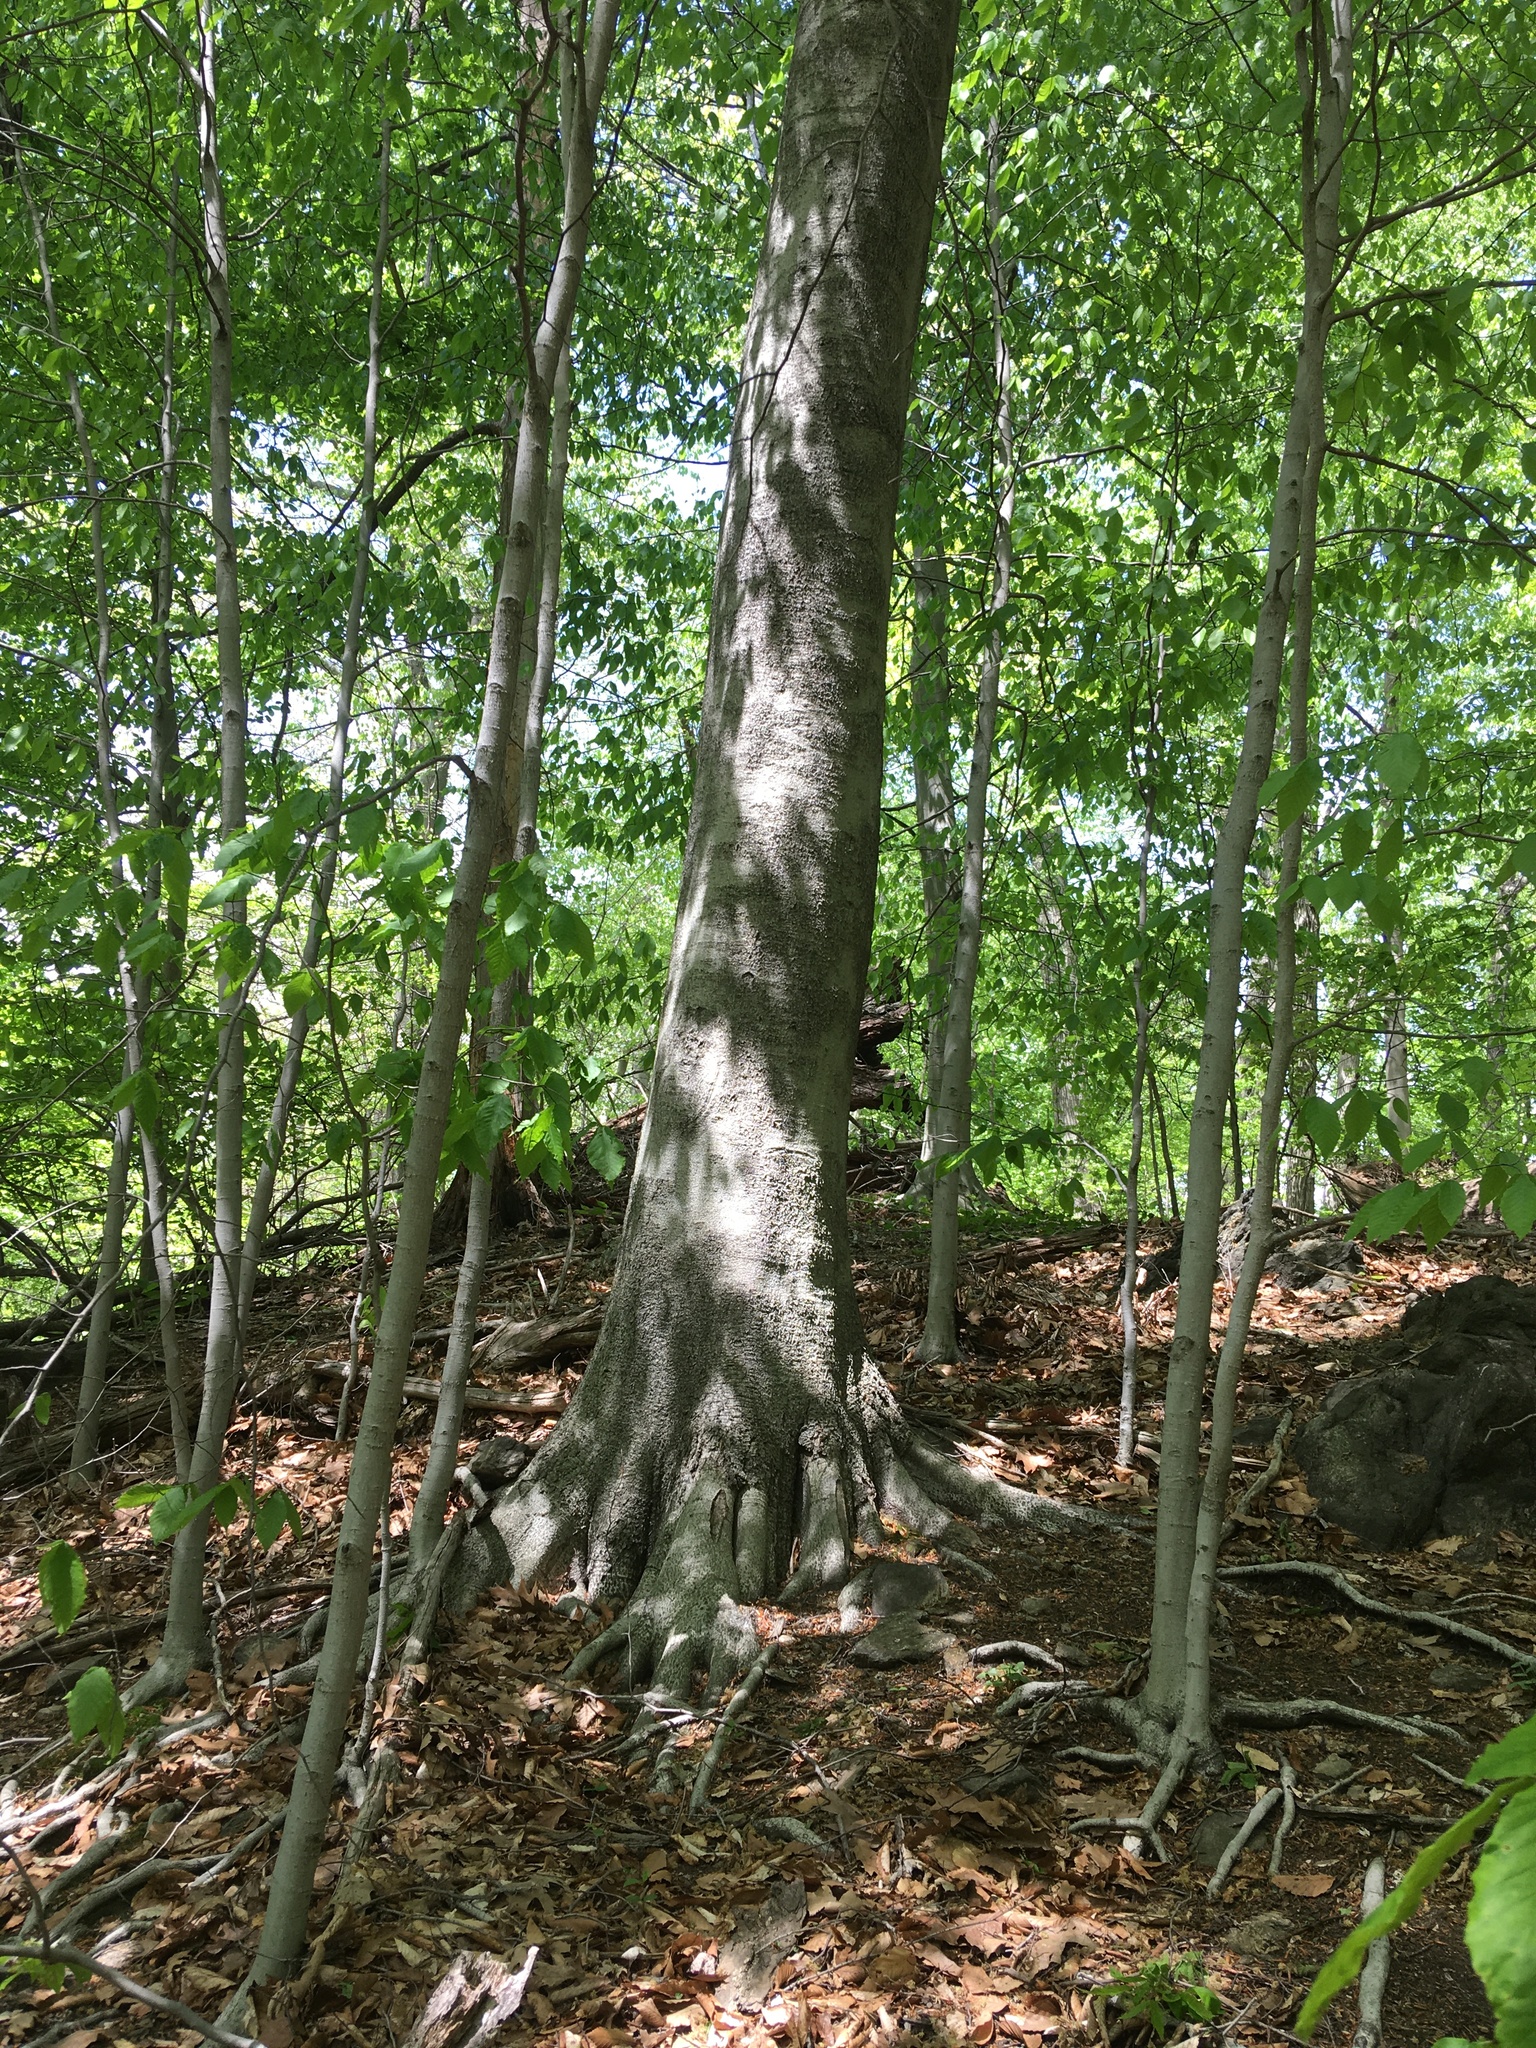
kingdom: Plantae
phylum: Tracheophyta
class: Magnoliopsida
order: Fagales
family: Fagaceae
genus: Fagus
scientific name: Fagus grandifolia
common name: American beech
